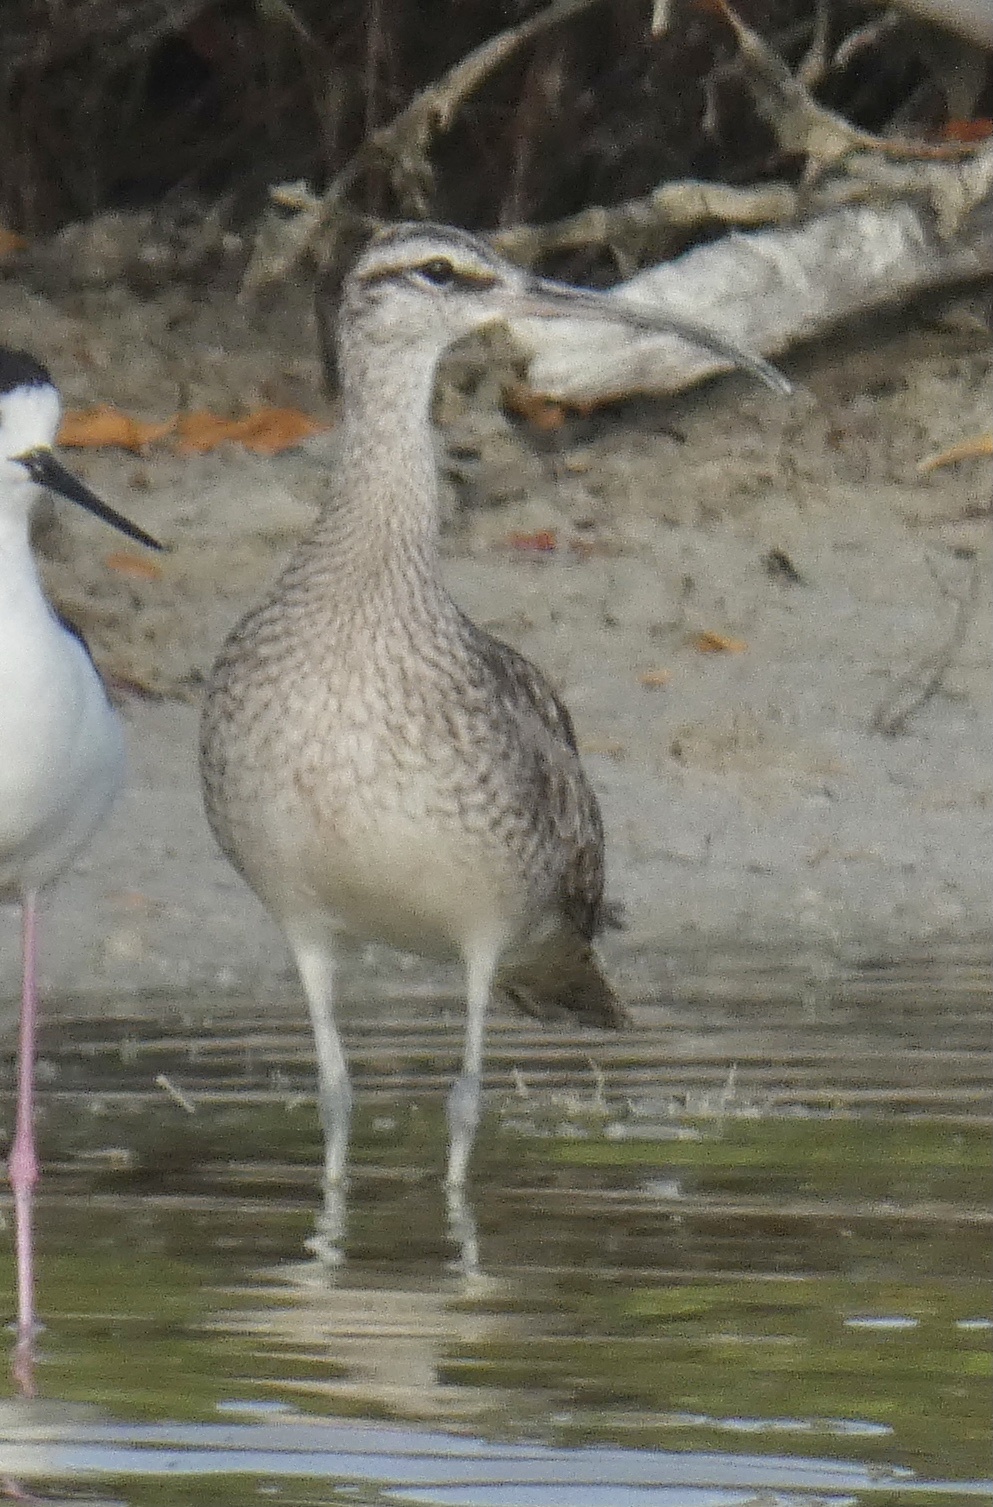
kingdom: Animalia
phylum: Chordata
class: Aves
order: Charadriiformes
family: Scolopacidae
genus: Numenius
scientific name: Numenius phaeopus
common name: Whimbrel
